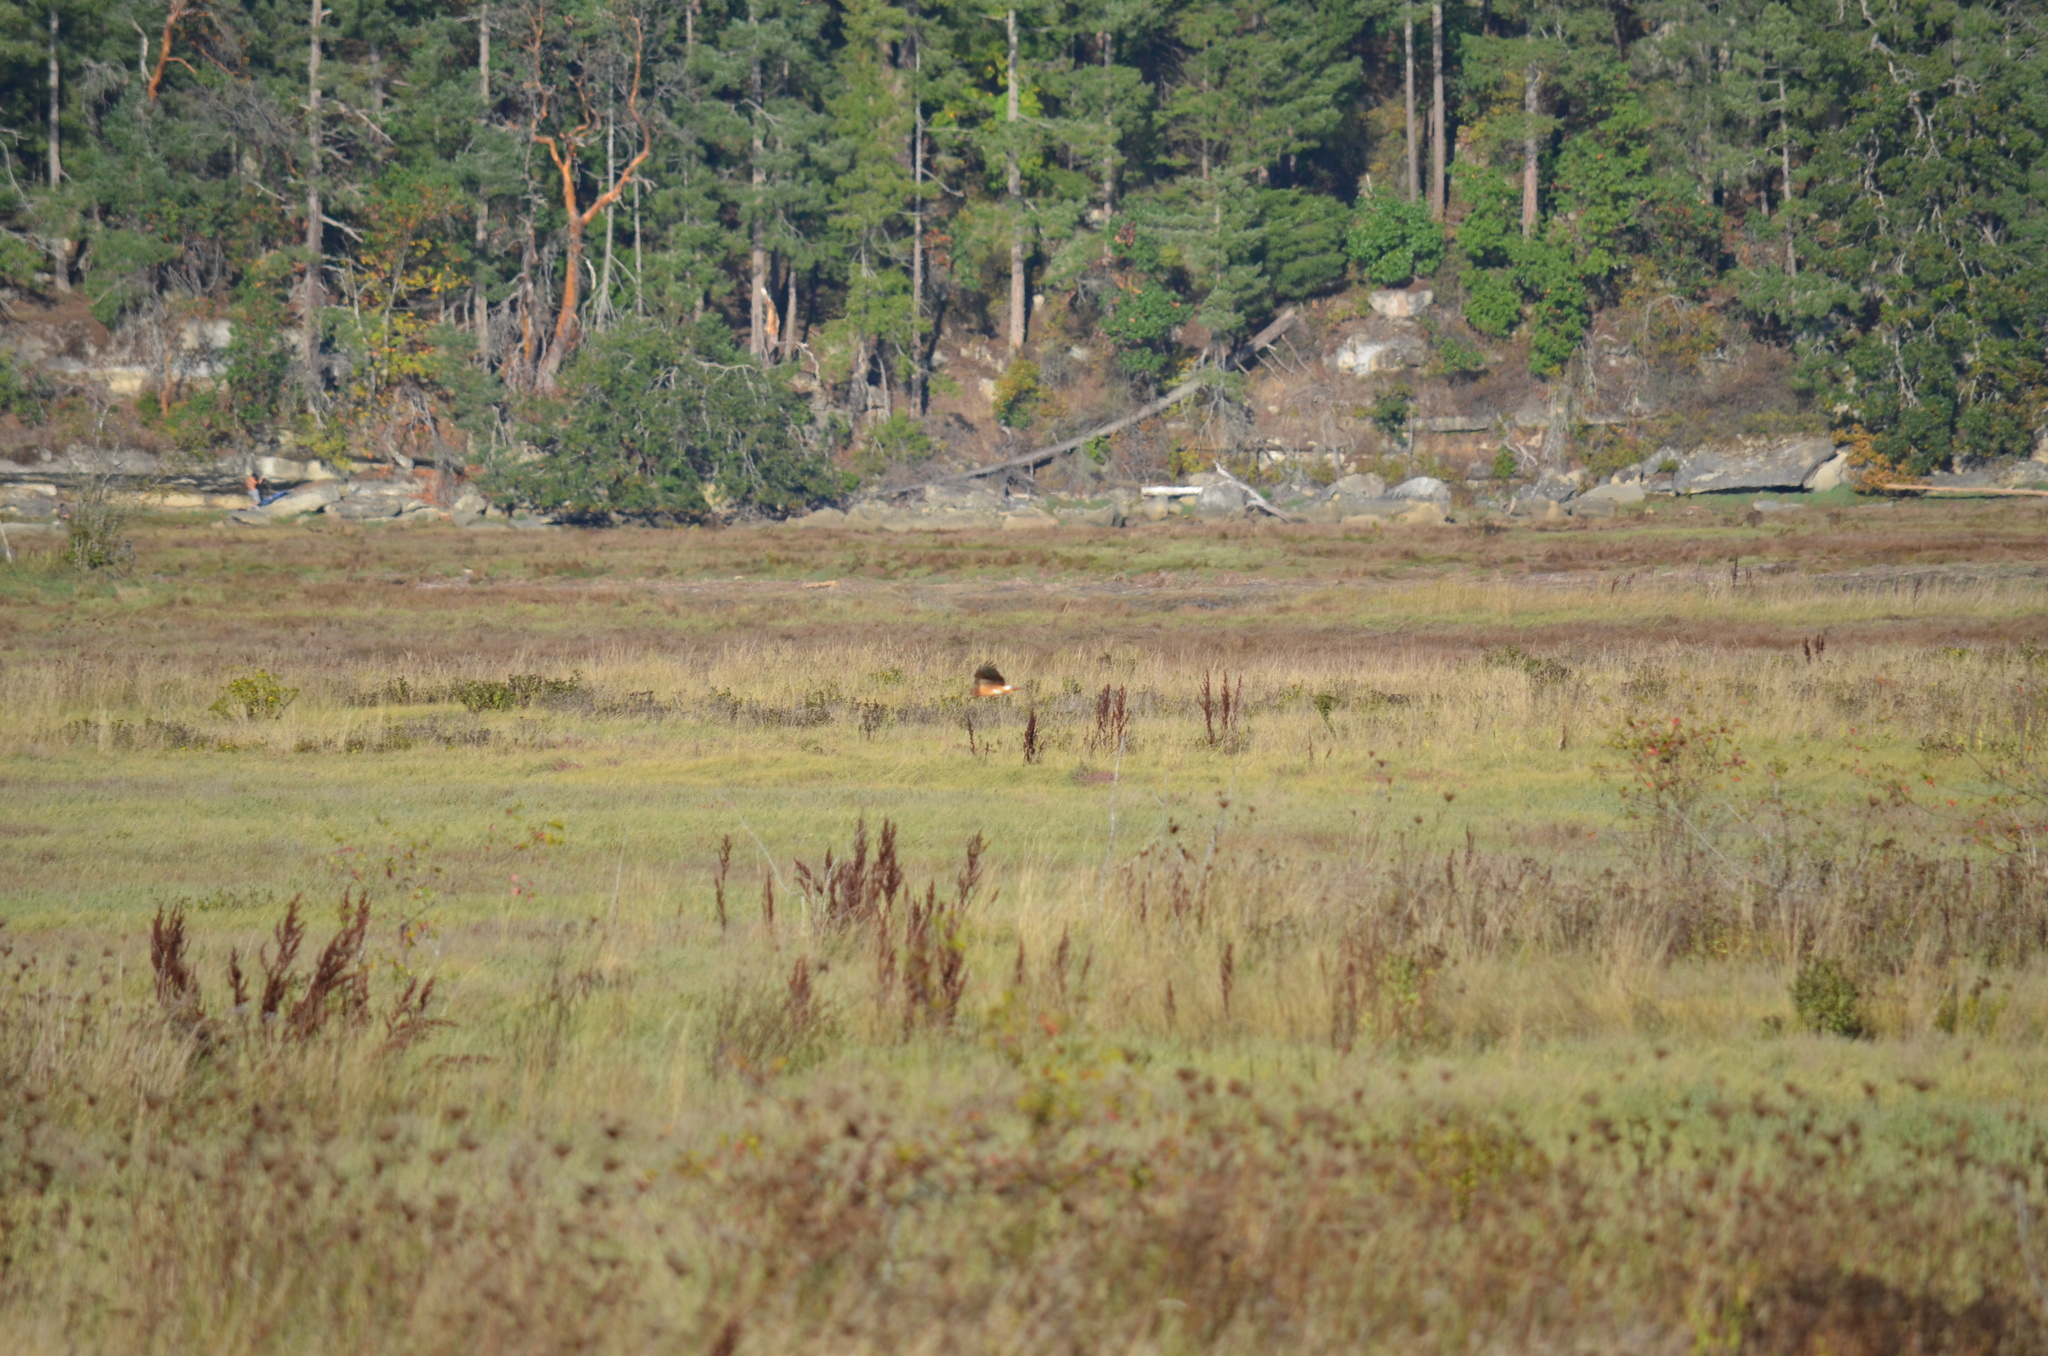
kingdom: Animalia
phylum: Chordata
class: Aves
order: Accipitriformes
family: Accipitridae
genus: Circus
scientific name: Circus cyaneus
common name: Hen harrier
